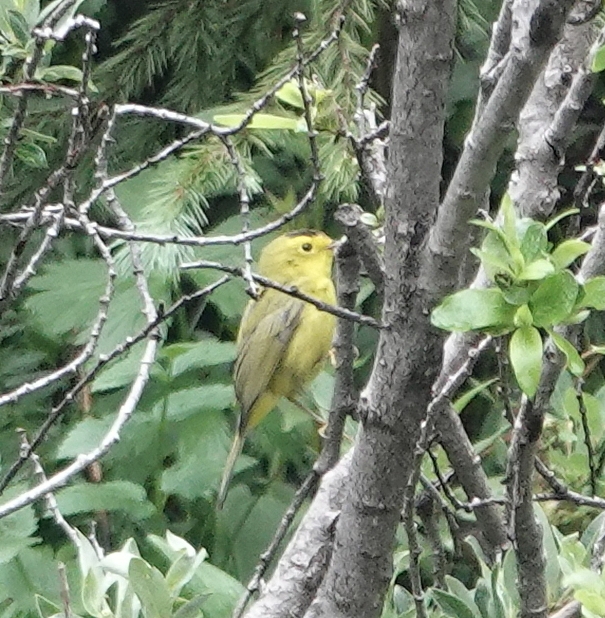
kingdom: Animalia
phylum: Chordata
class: Aves
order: Passeriformes
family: Parulidae
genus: Cardellina
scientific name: Cardellina pusilla
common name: Wilson's warbler
